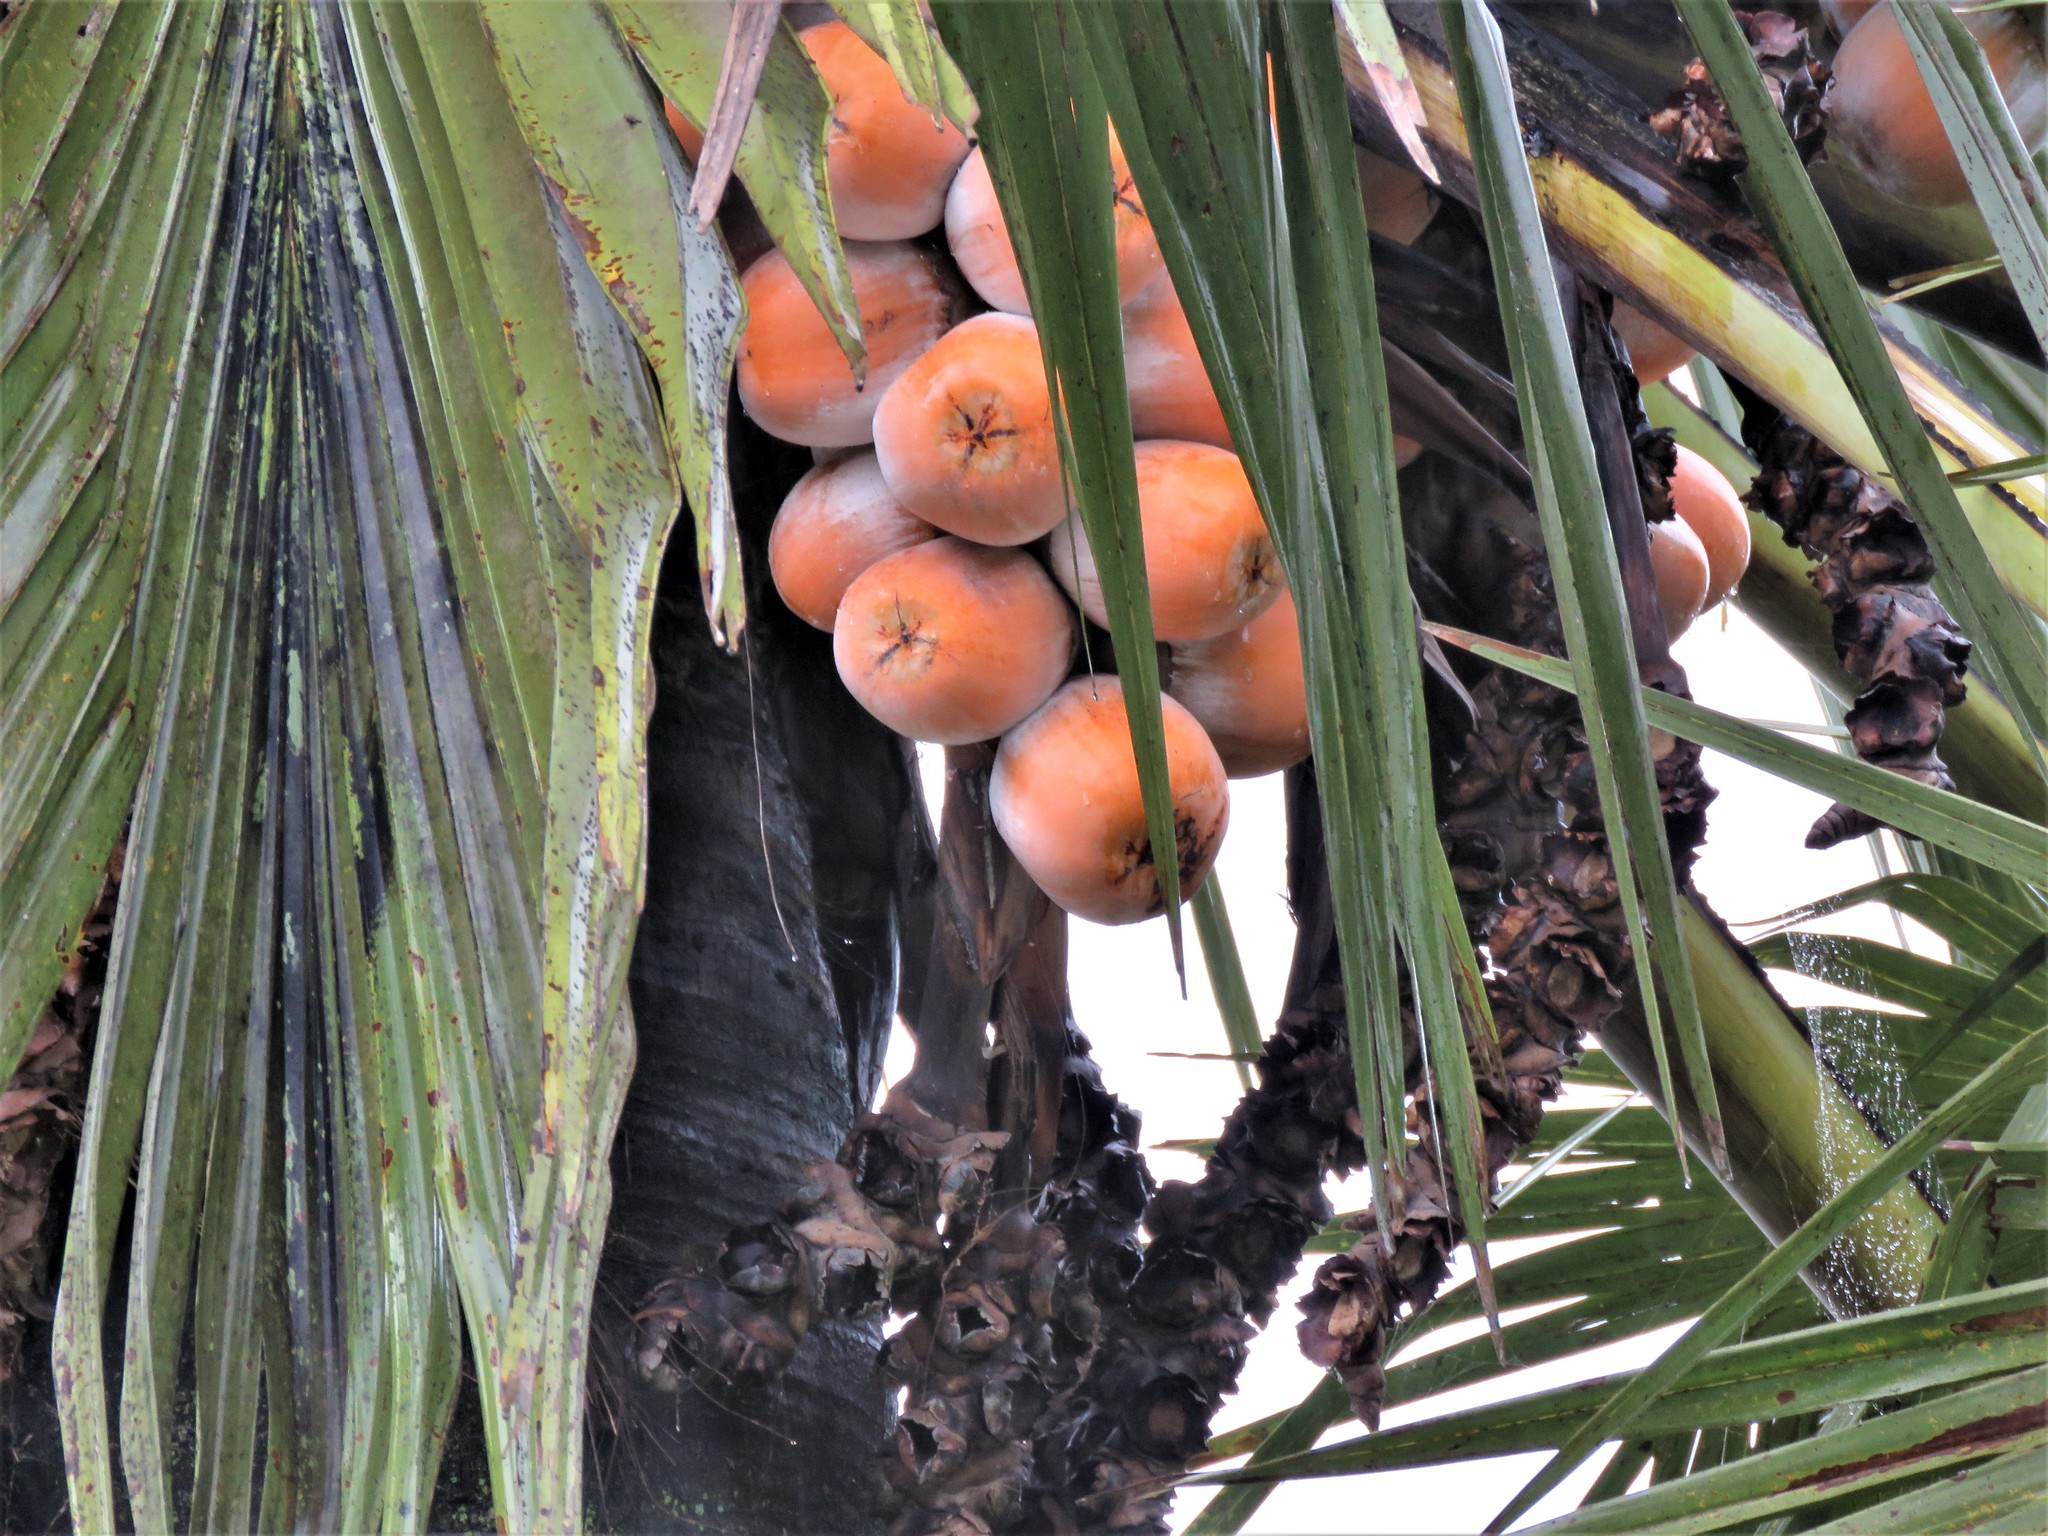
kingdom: Plantae
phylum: Tracheophyta
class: Liliopsida
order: Arecales
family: Arecaceae
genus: Borassus
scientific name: Borassus aethiopum
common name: Elephant palm
